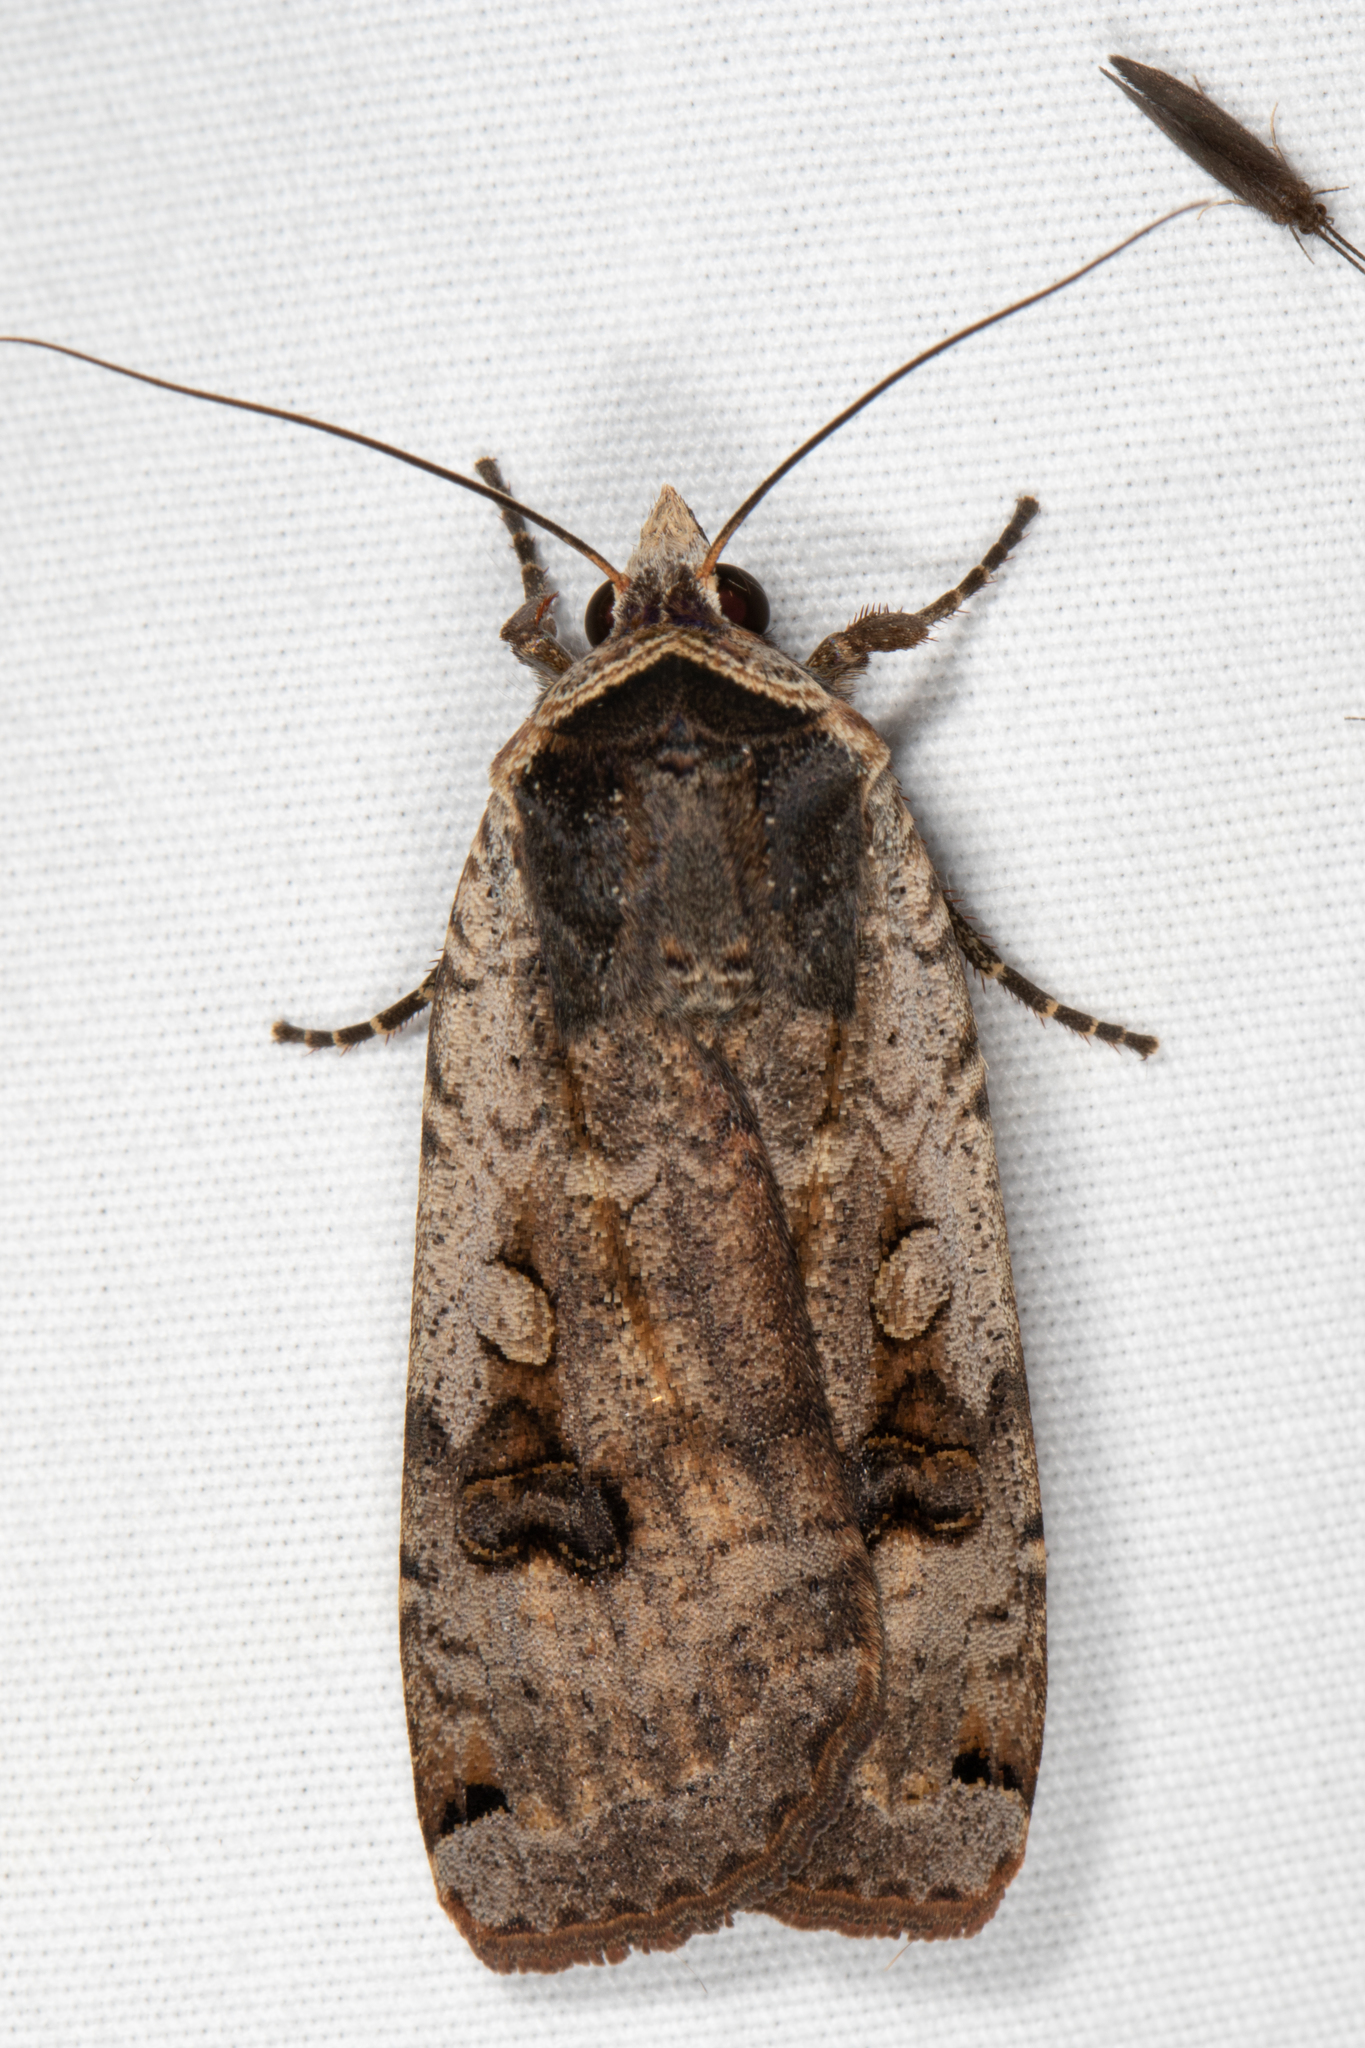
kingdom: Animalia
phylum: Arthropoda
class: Insecta
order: Lepidoptera
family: Noctuidae
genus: Noctua
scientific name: Noctua pronuba
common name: Large yellow underwing
